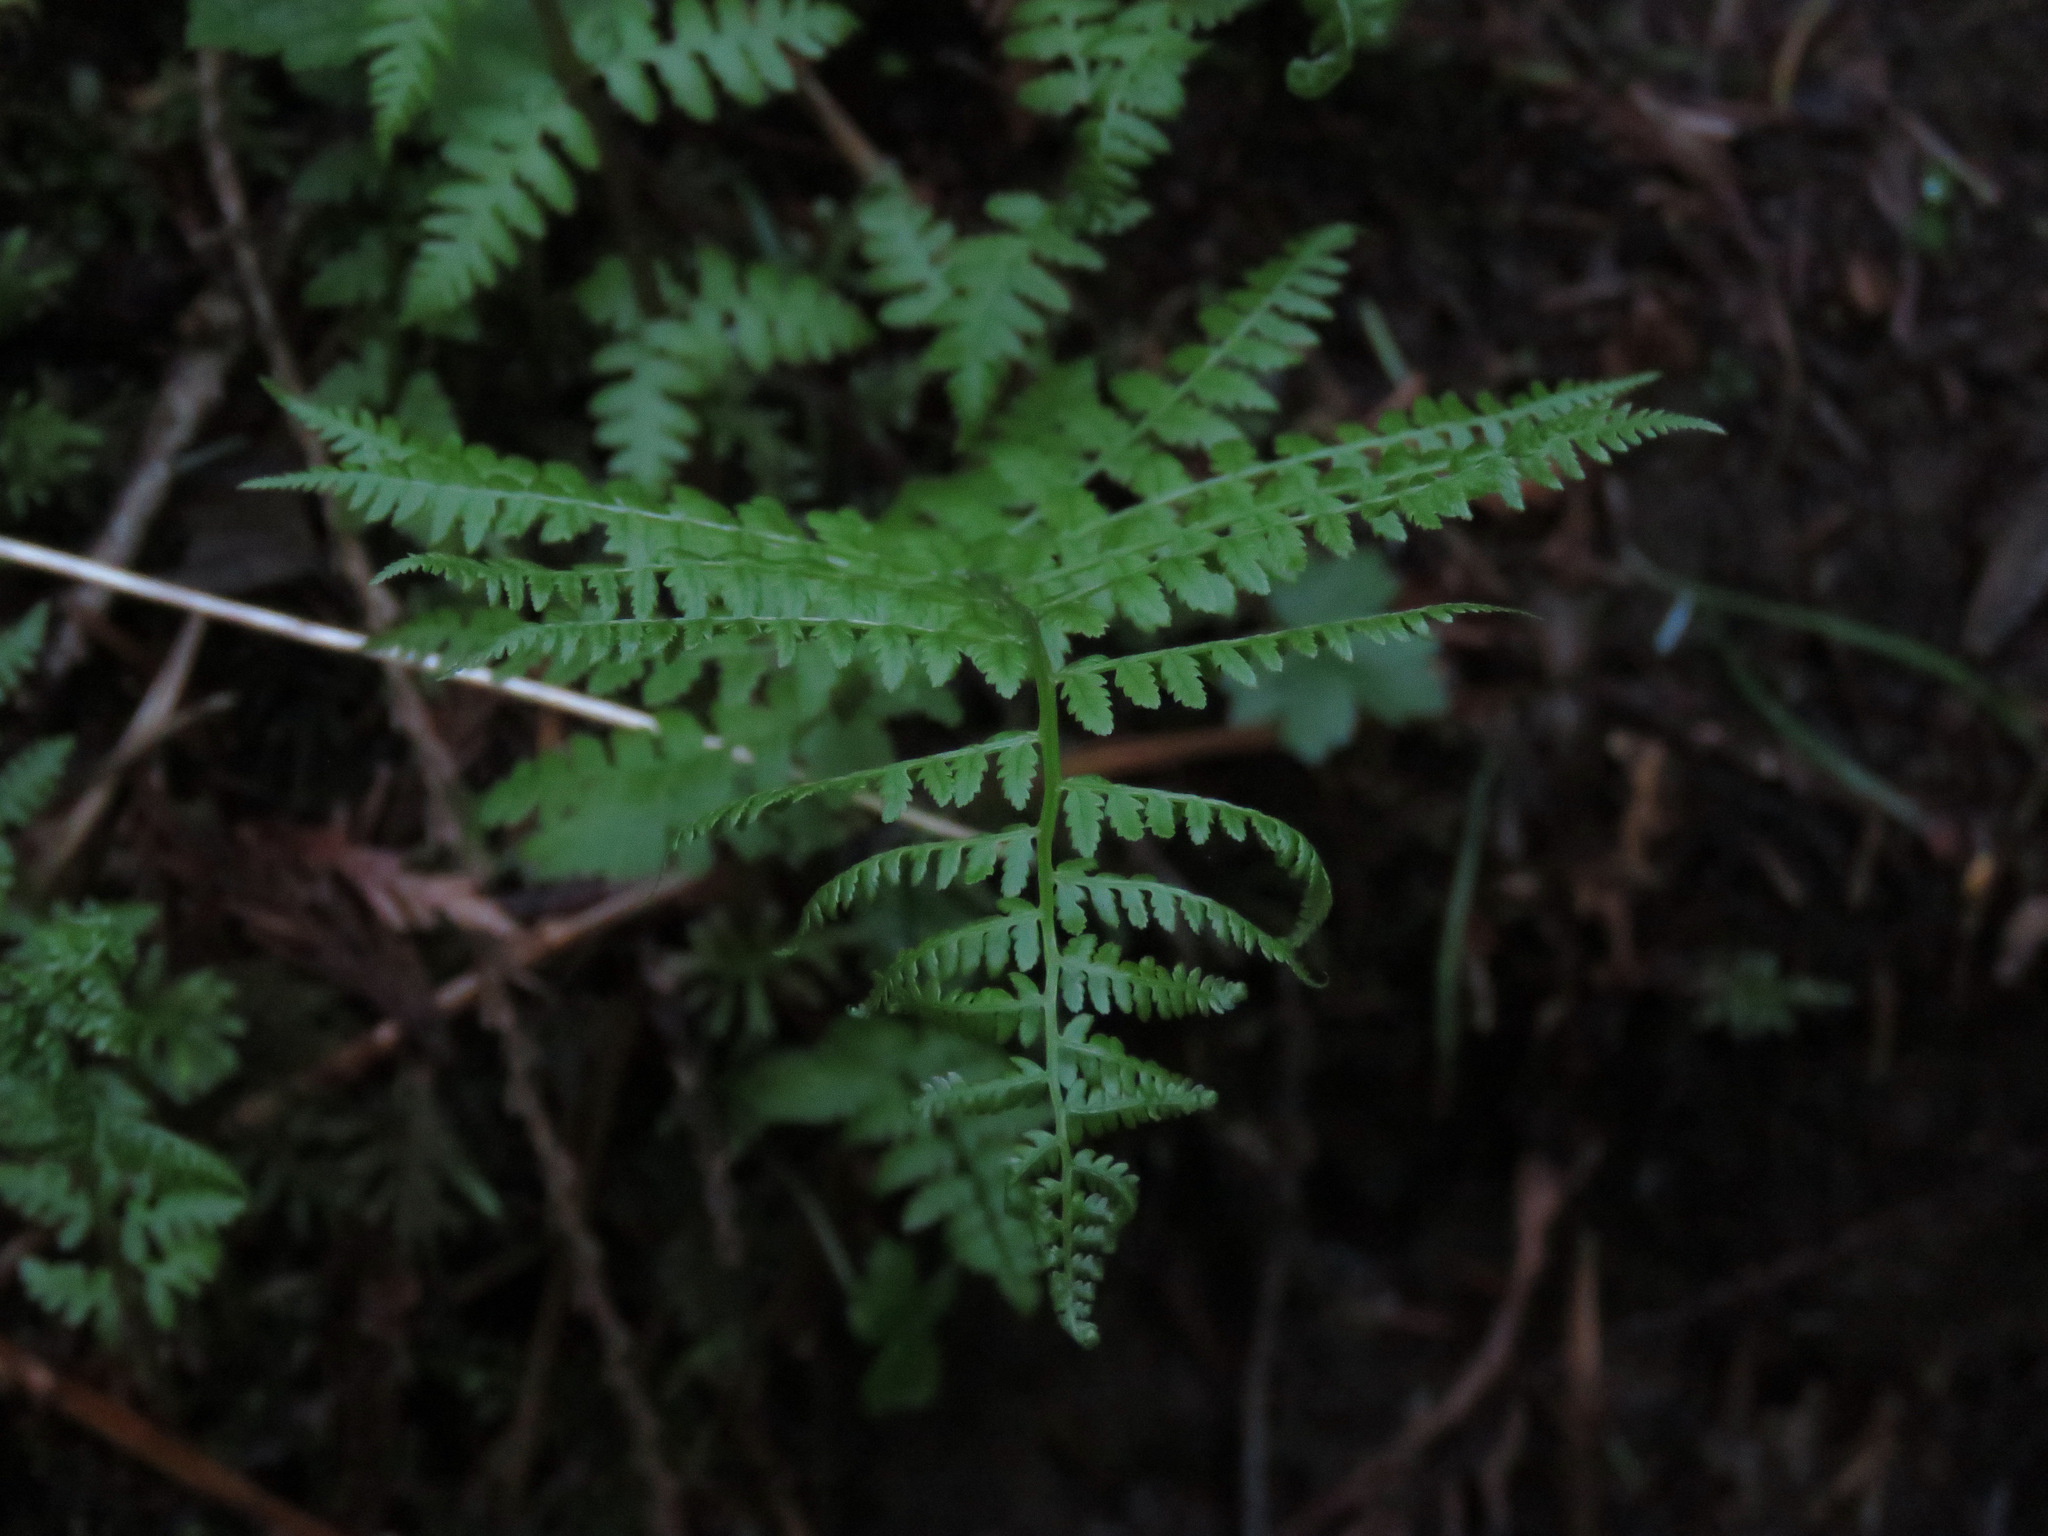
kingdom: Plantae
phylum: Tracheophyta
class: Polypodiopsida
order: Polypodiales
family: Athyriaceae
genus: Athyrium
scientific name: Athyrium cyclosorum
